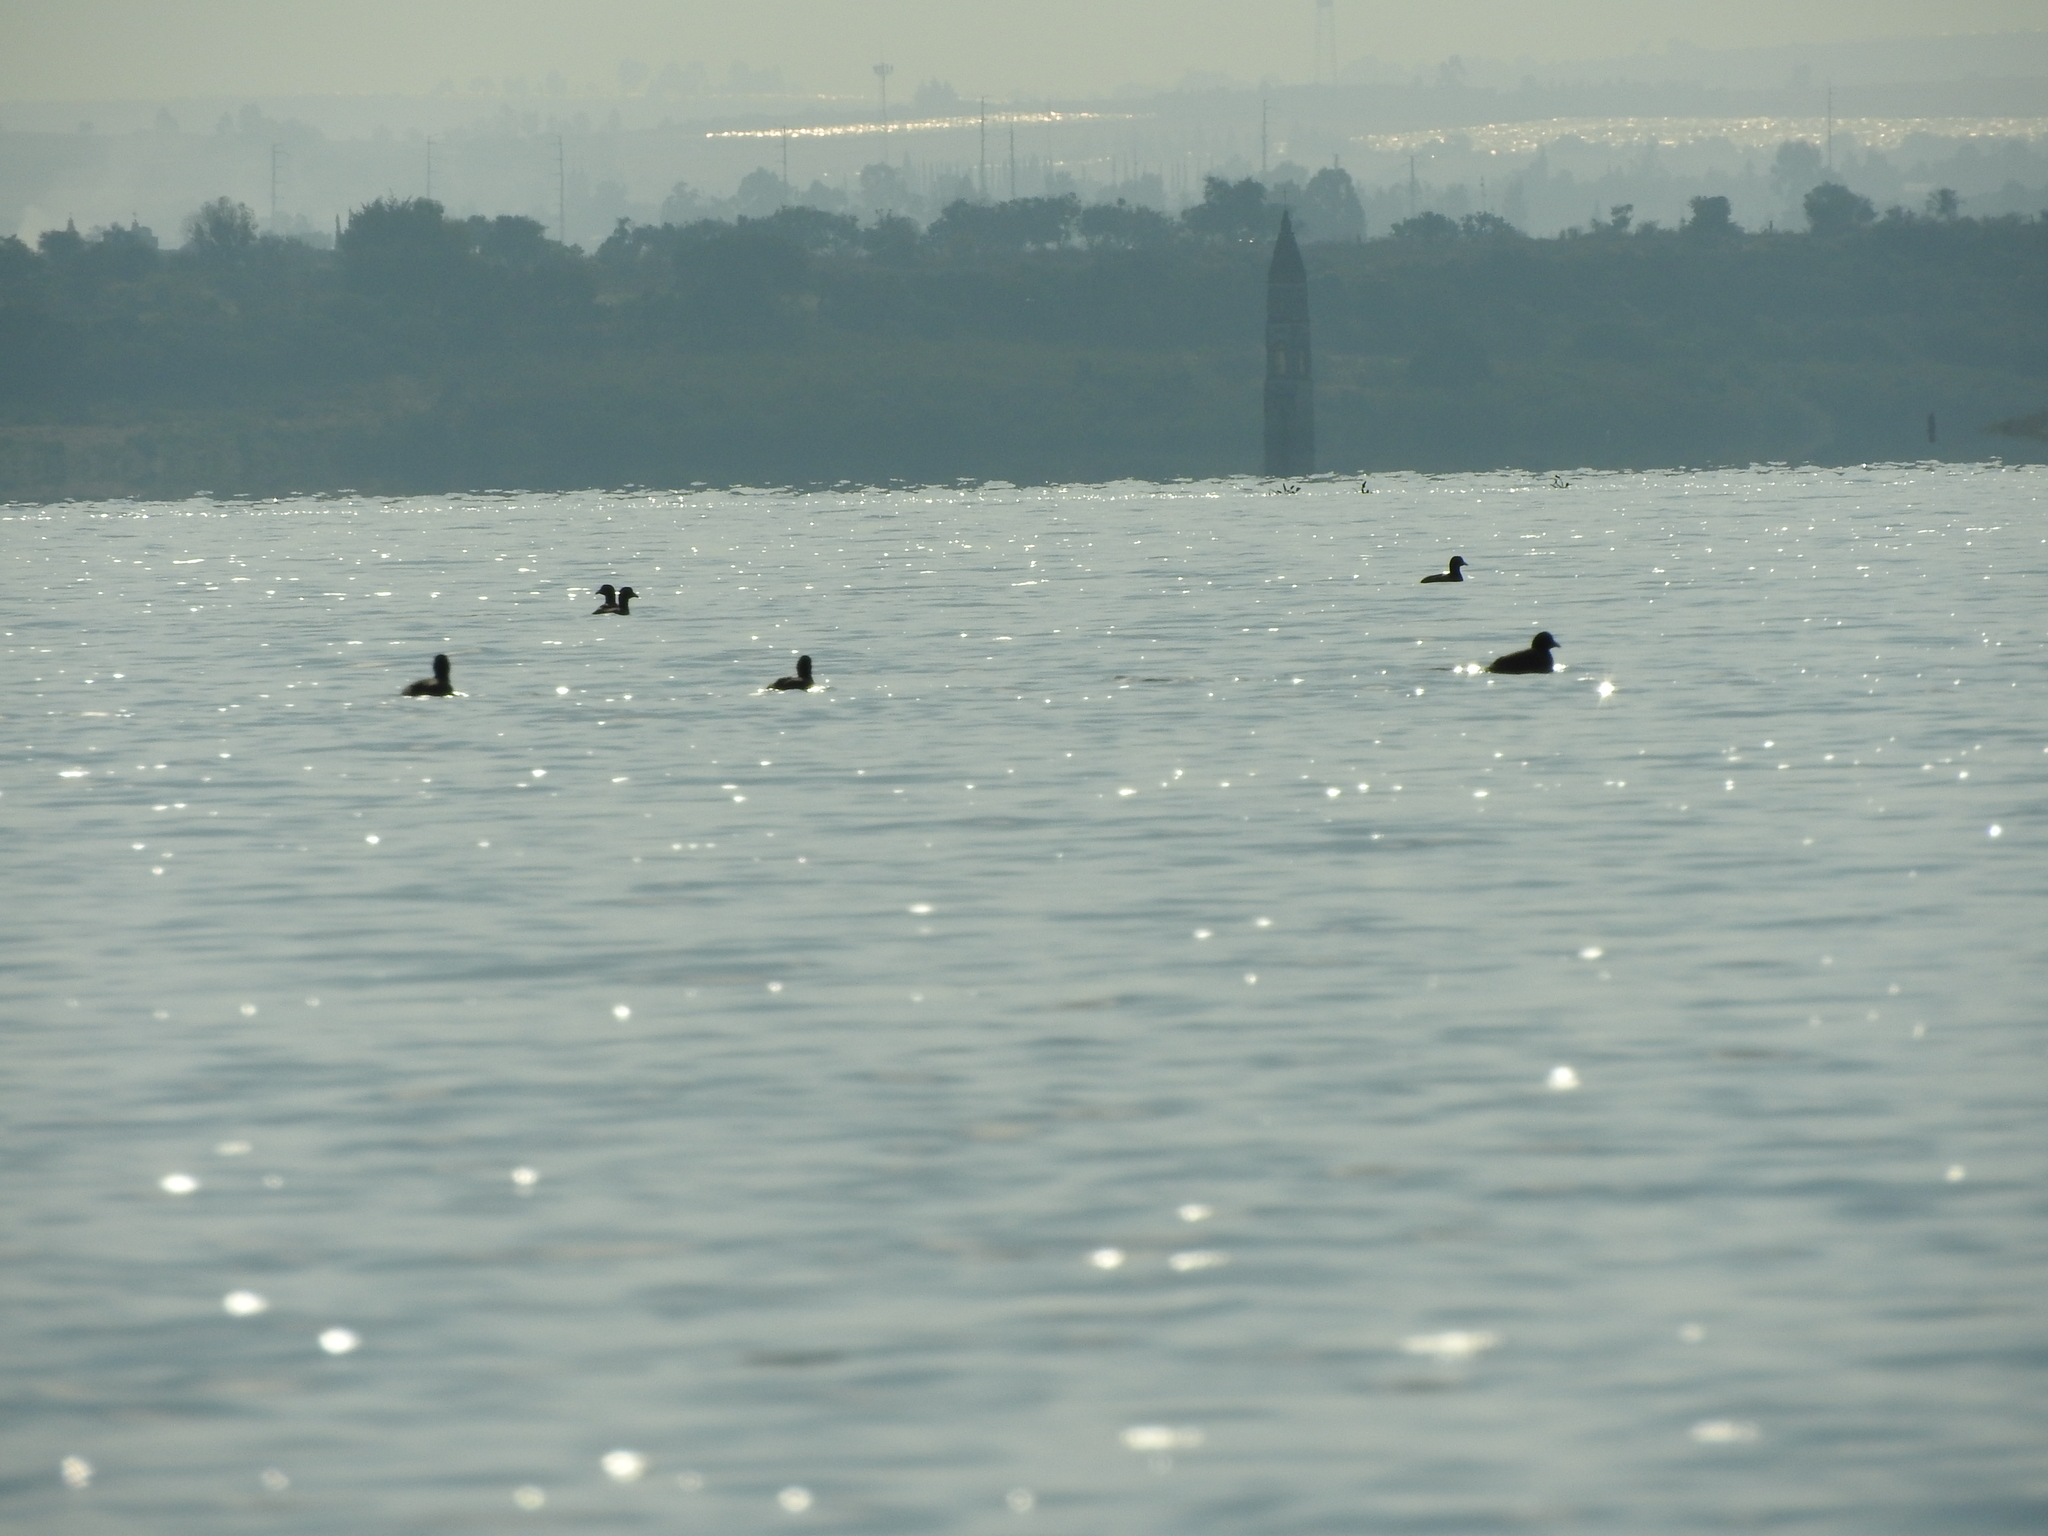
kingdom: Animalia
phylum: Chordata
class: Aves
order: Gruiformes
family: Rallidae
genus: Fulica
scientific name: Fulica americana
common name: American coot
